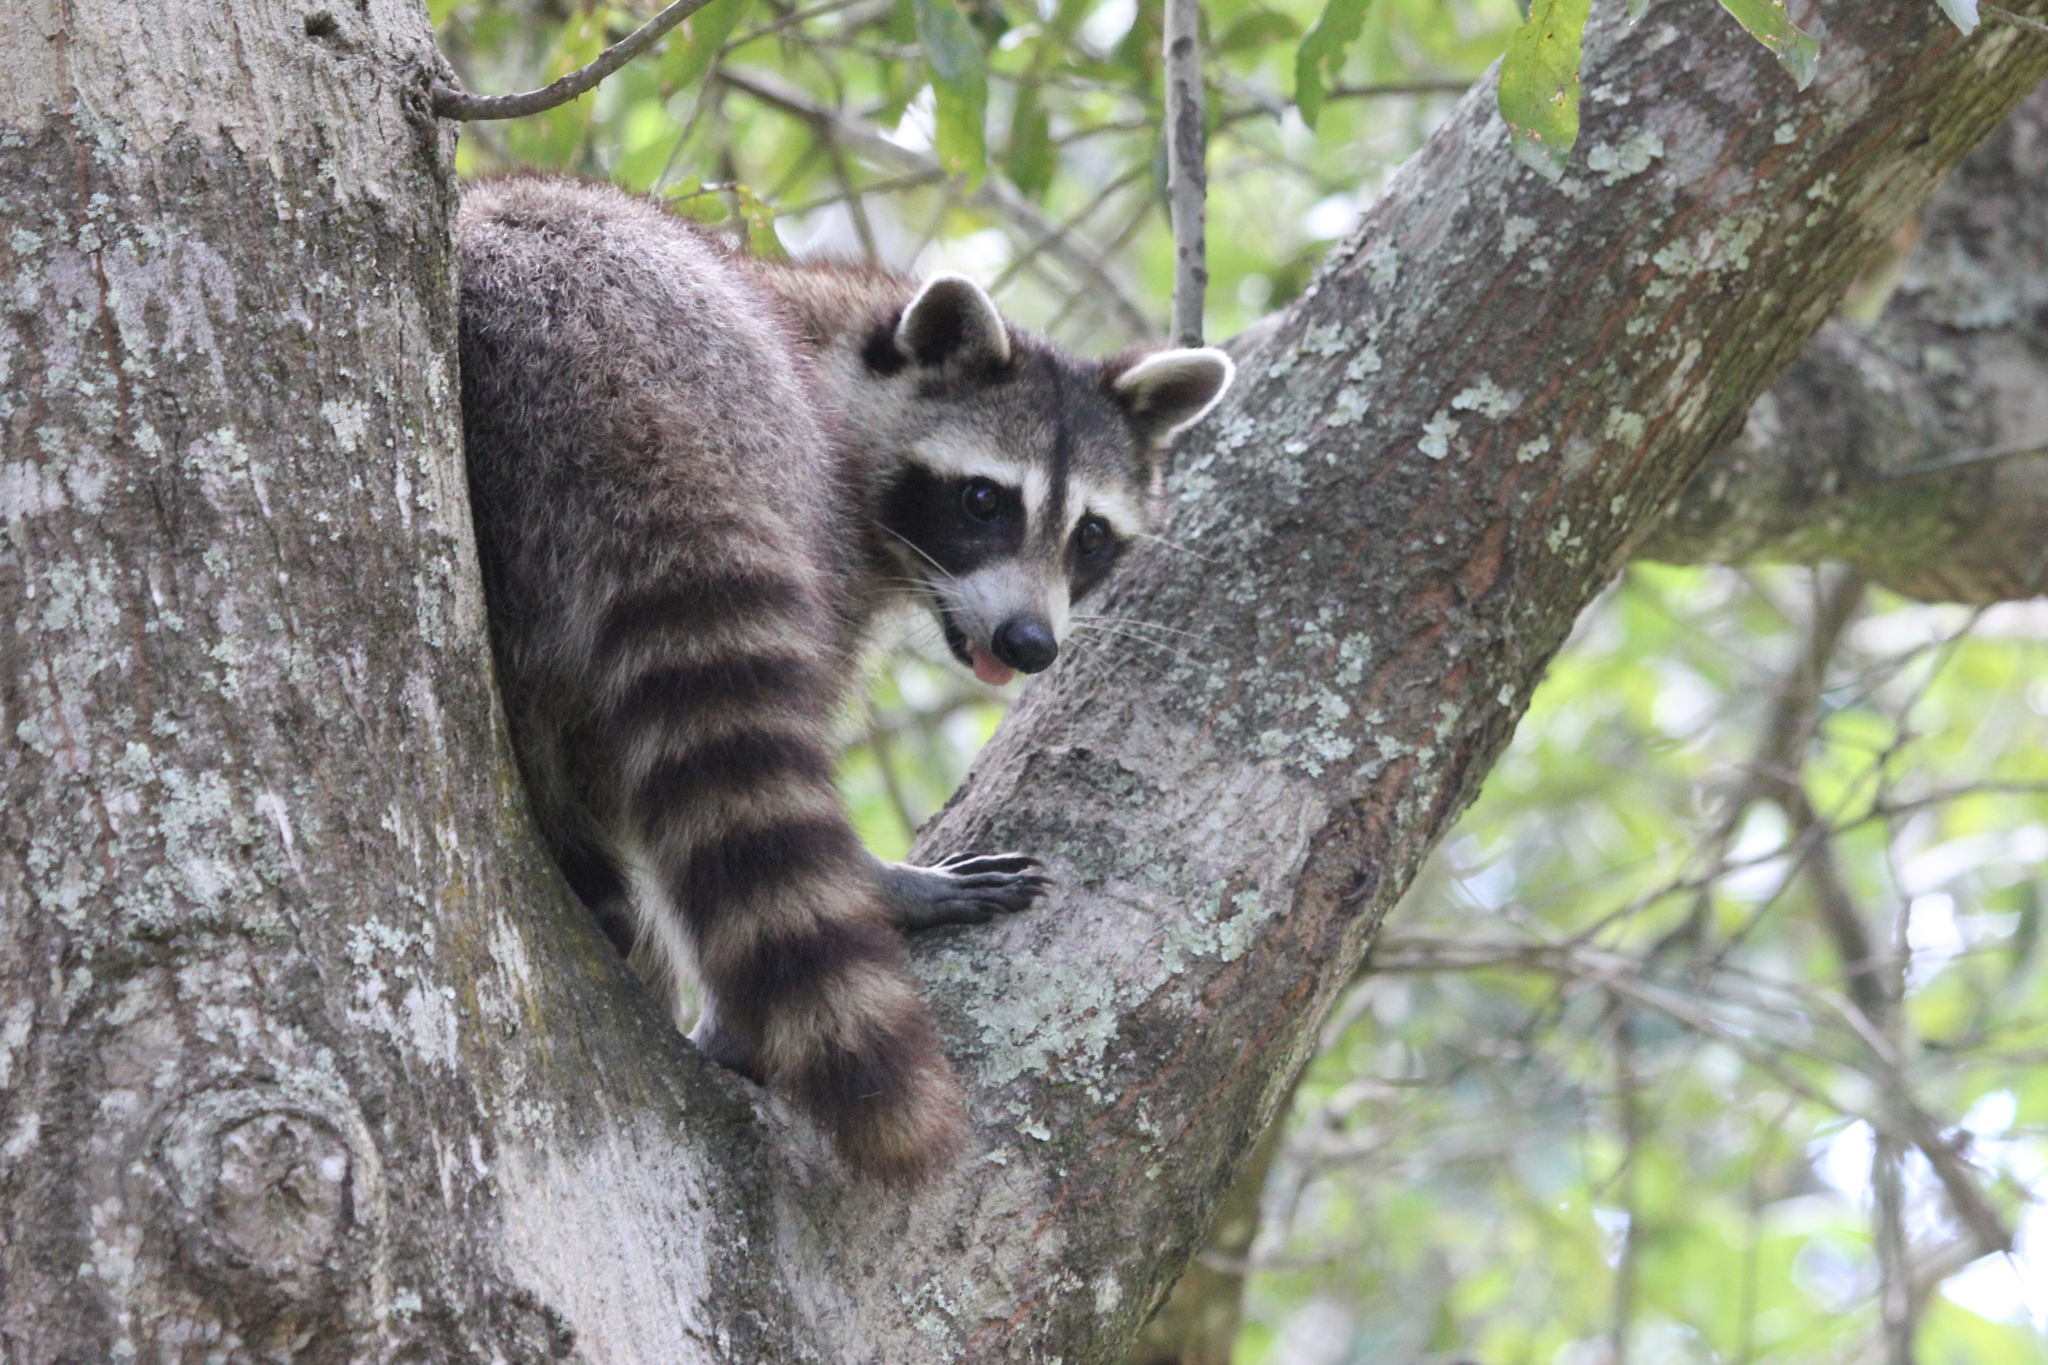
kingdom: Animalia
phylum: Chordata
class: Mammalia
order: Carnivora
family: Procyonidae
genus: Procyon
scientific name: Procyon lotor
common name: Raccoon
